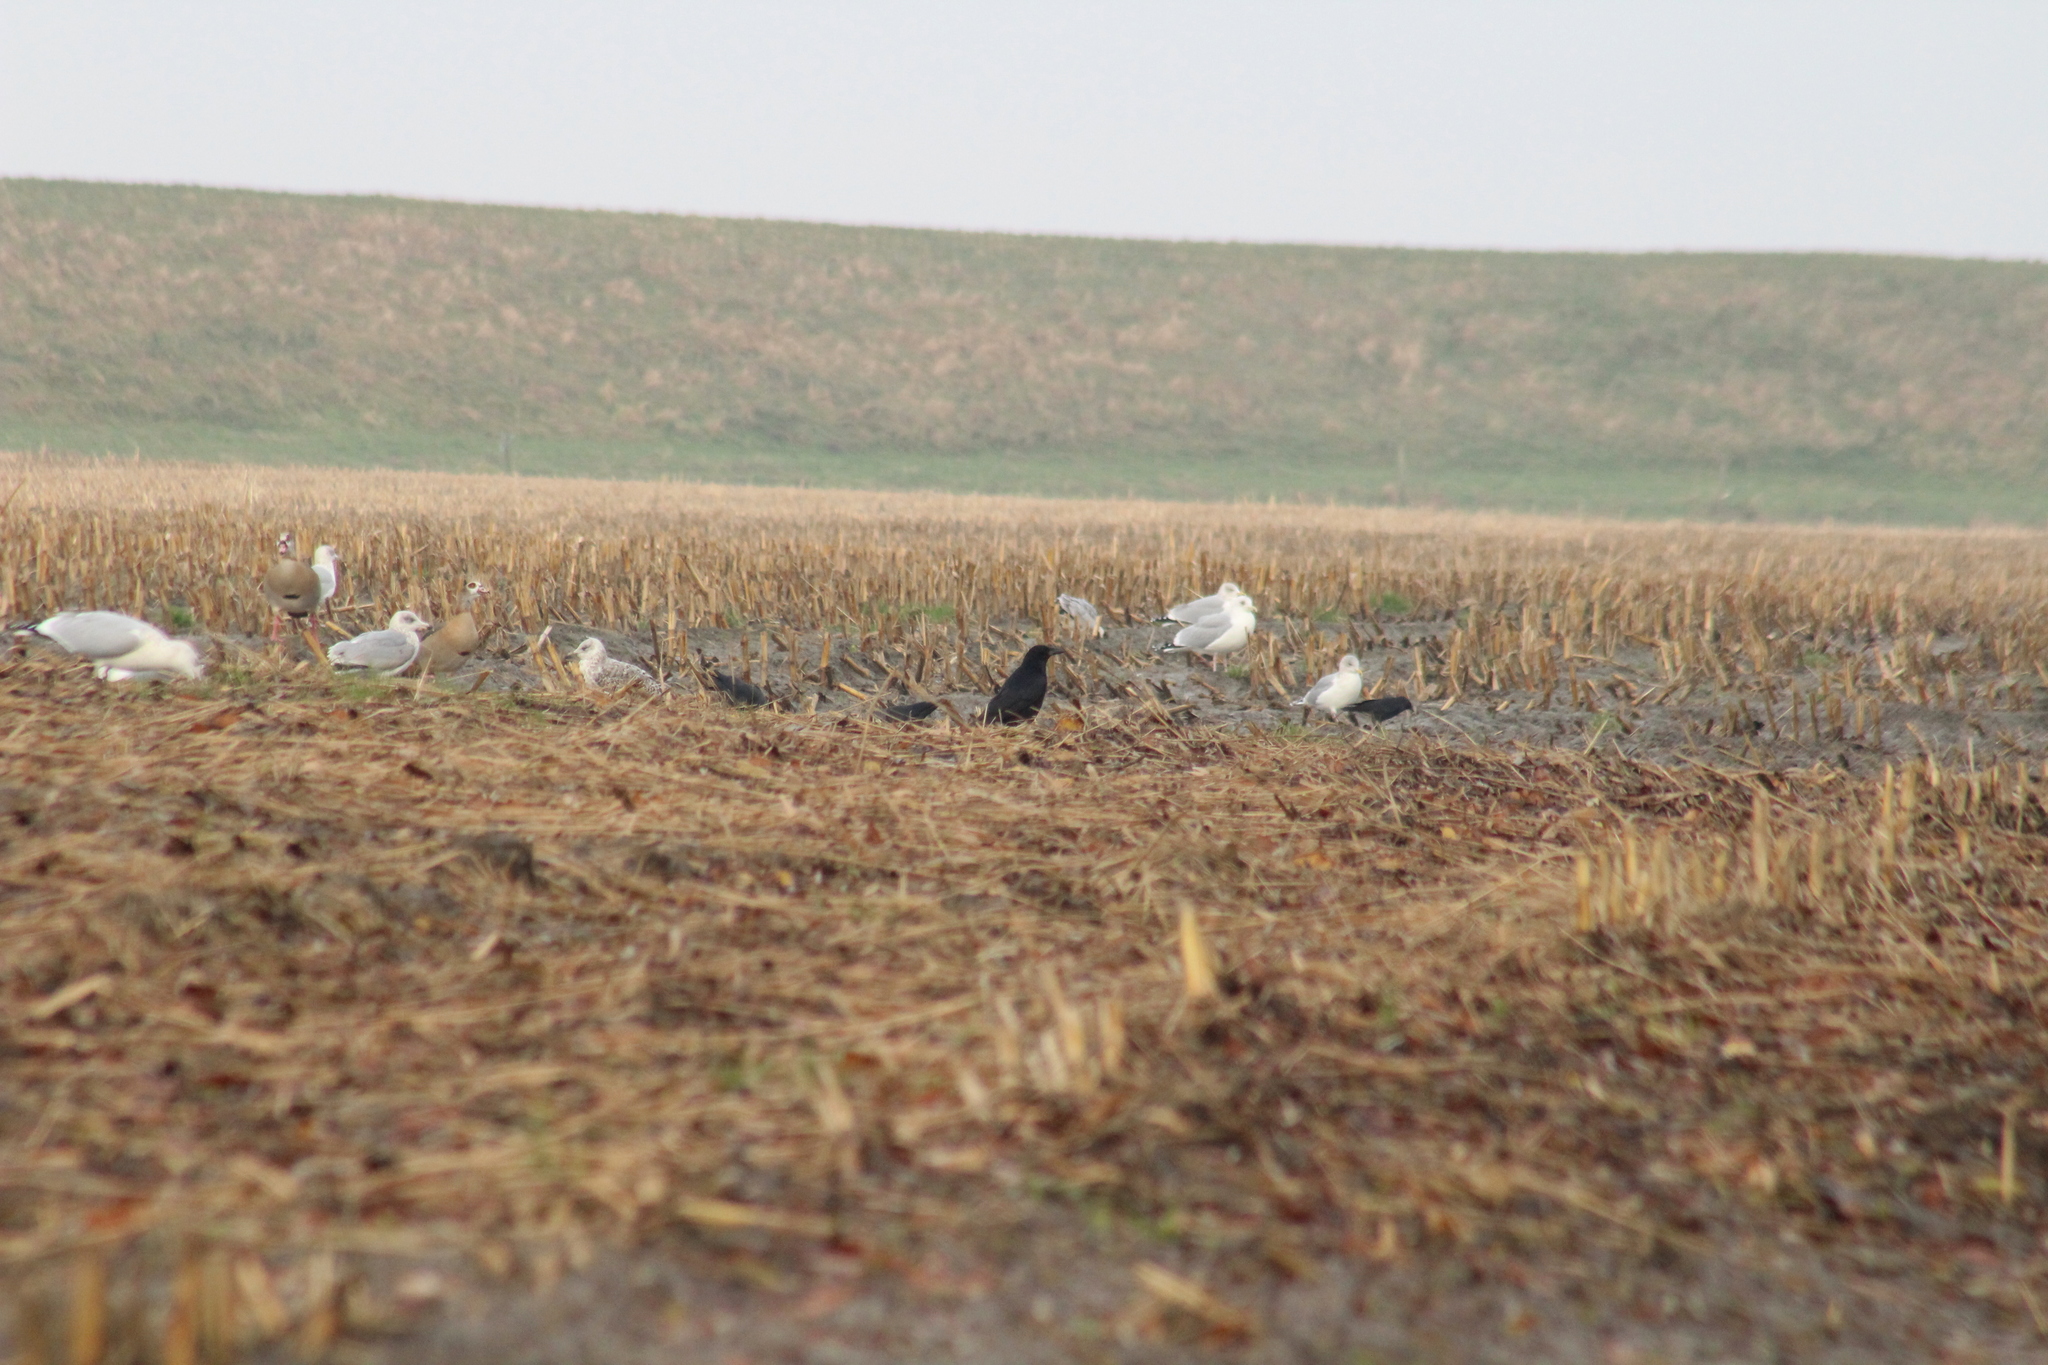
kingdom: Animalia
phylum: Chordata
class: Aves
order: Passeriformes
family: Corvidae
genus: Corvus
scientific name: Corvus corone
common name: Carrion crow
